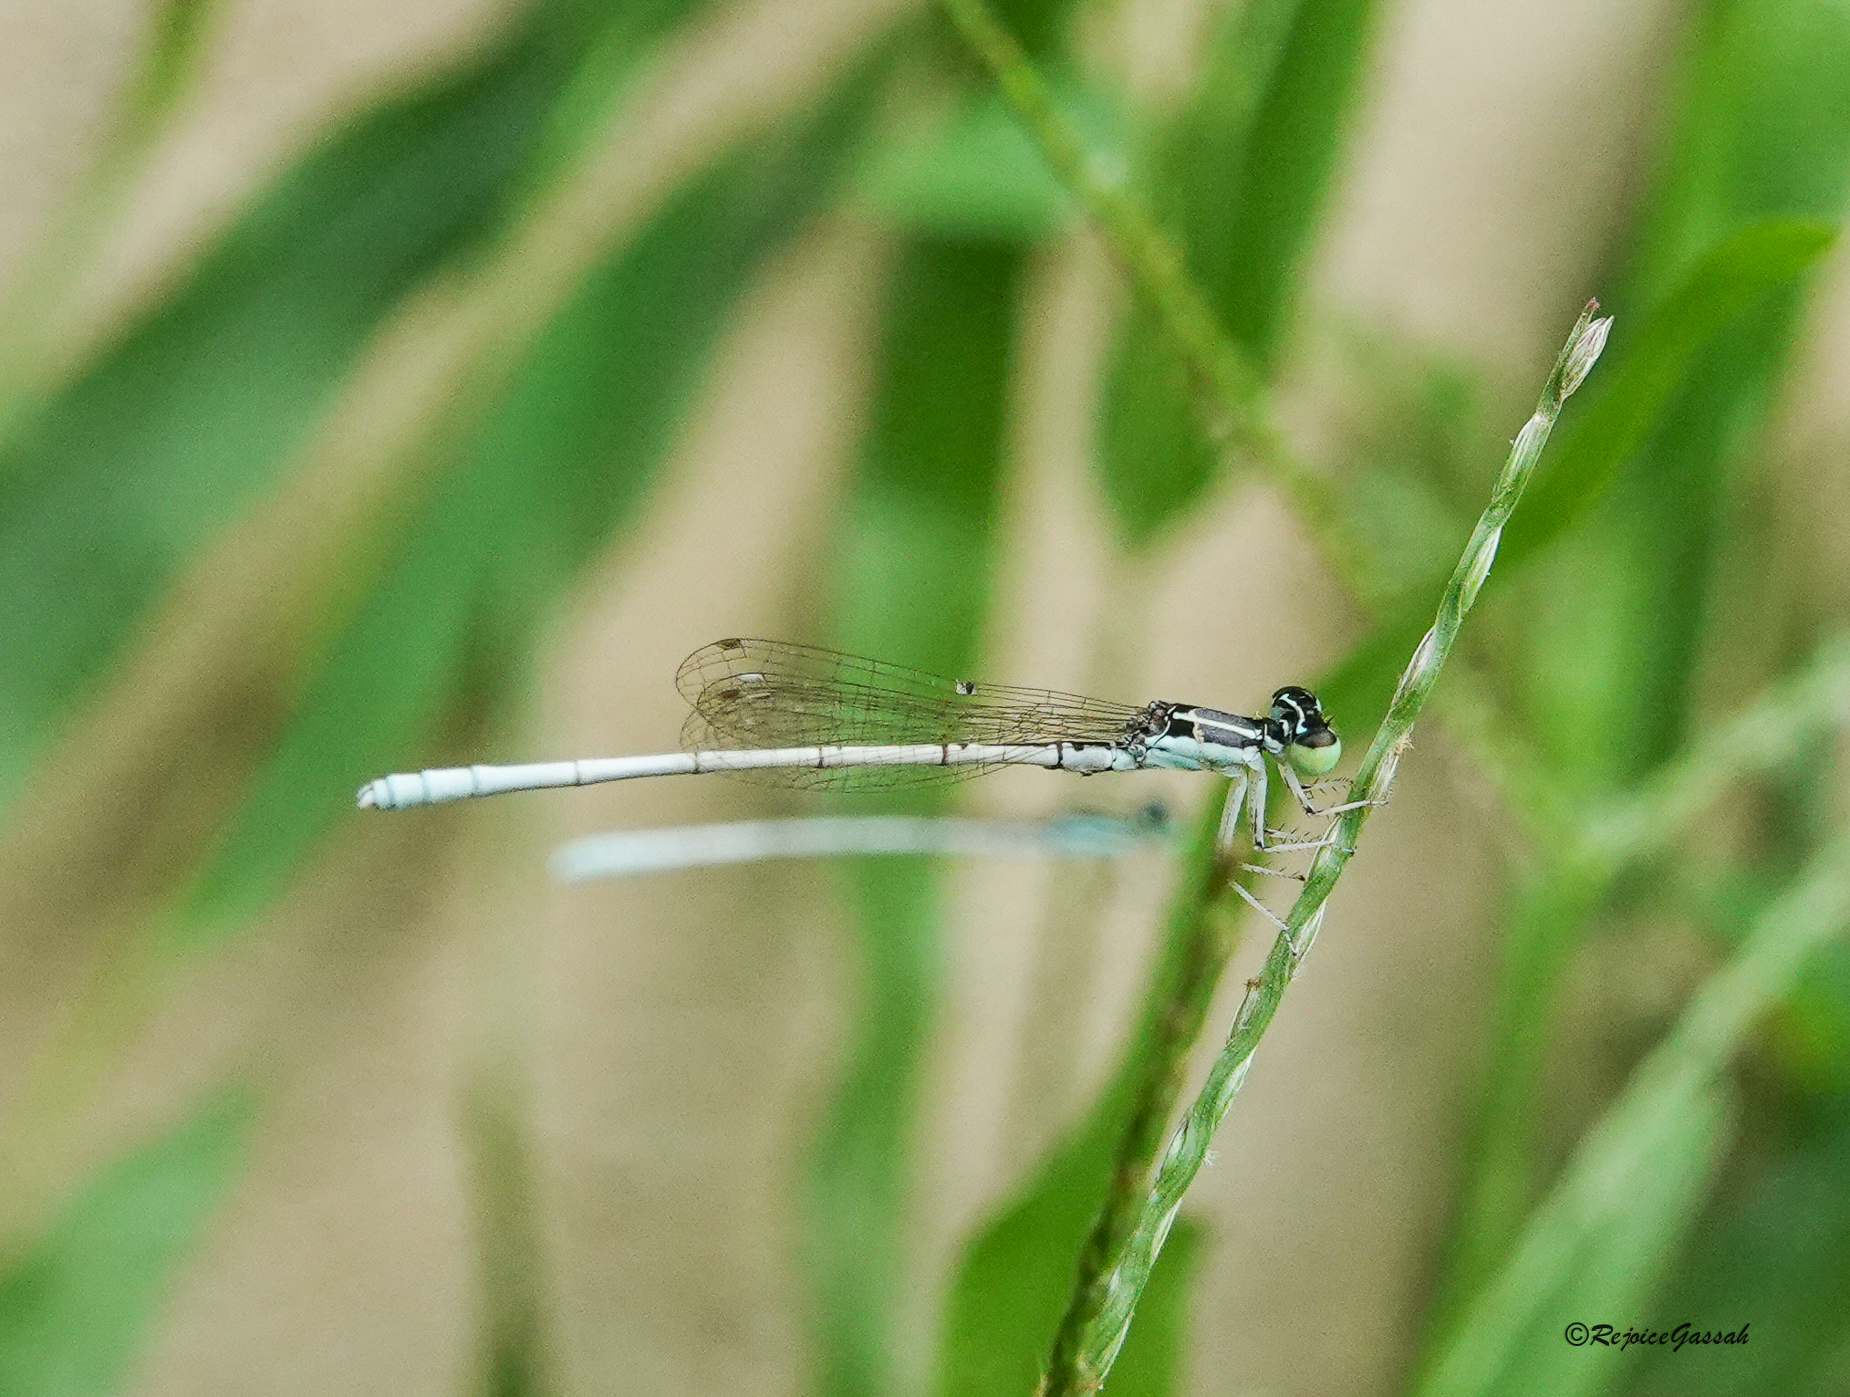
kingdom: Animalia
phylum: Arthropoda
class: Insecta
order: Odonata
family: Coenagrionidae
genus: Agriocnemis
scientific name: Agriocnemis lacteola
